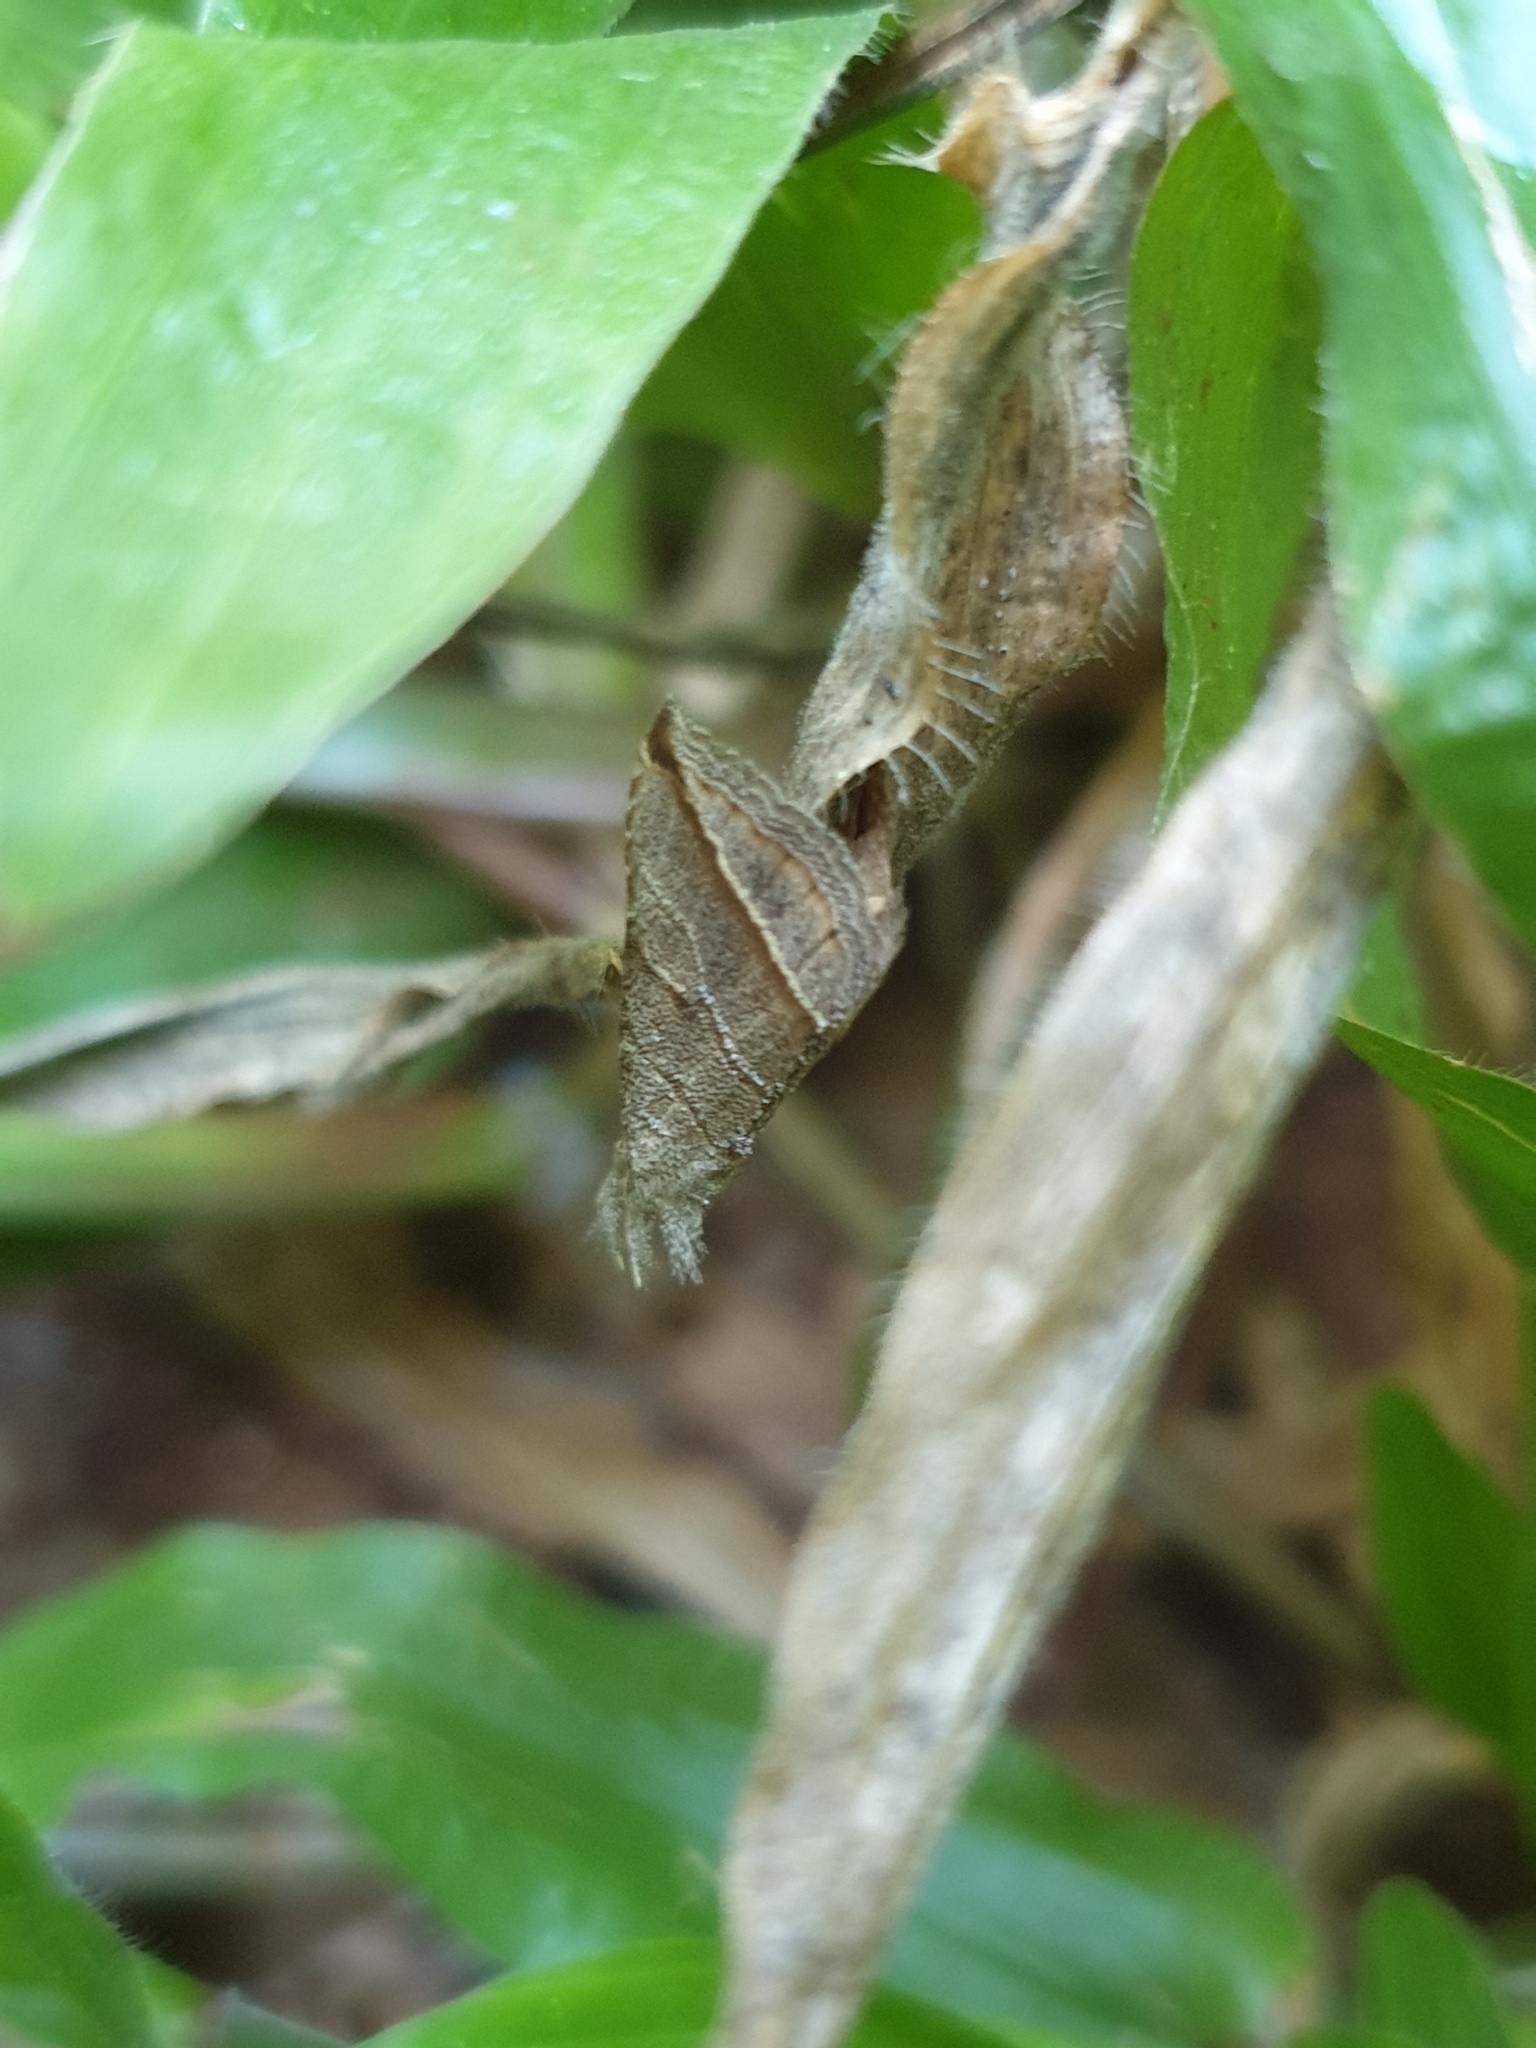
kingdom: Animalia
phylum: Arthropoda
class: Insecta
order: Lepidoptera
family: Erebidae
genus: Britha
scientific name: Britha biguttata
